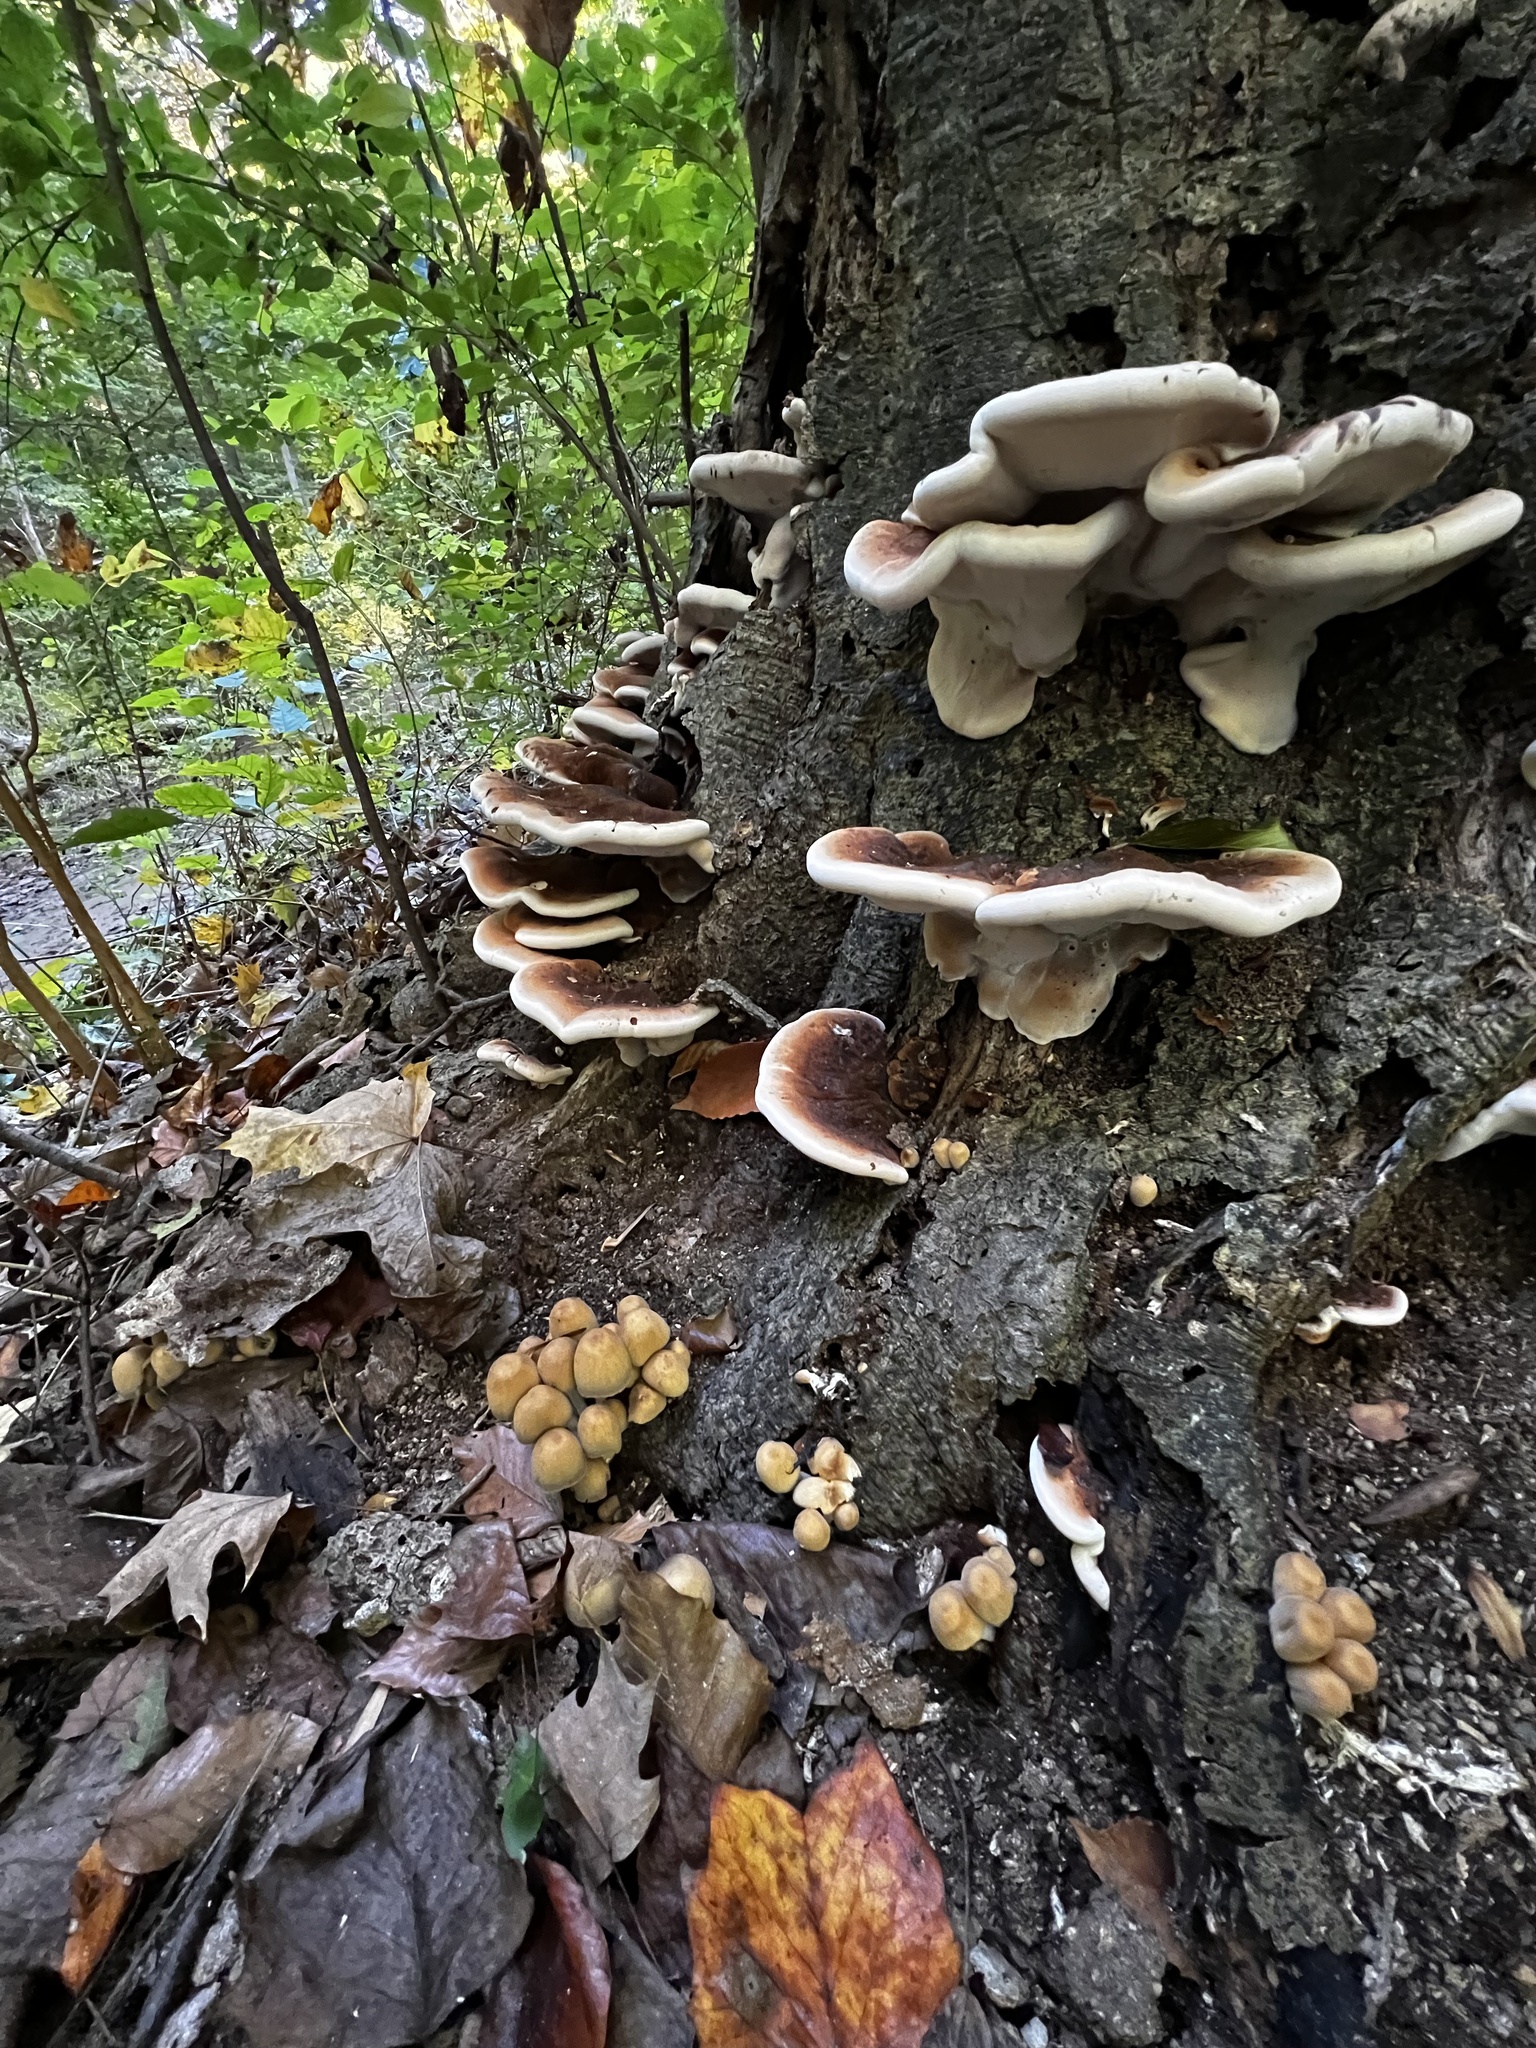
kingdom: Fungi
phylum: Basidiomycota
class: Agaricomycetes
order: Polyporales
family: Ischnodermataceae
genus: Ischnoderma
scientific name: Ischnoderma resinosum
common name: Resinous polypore
